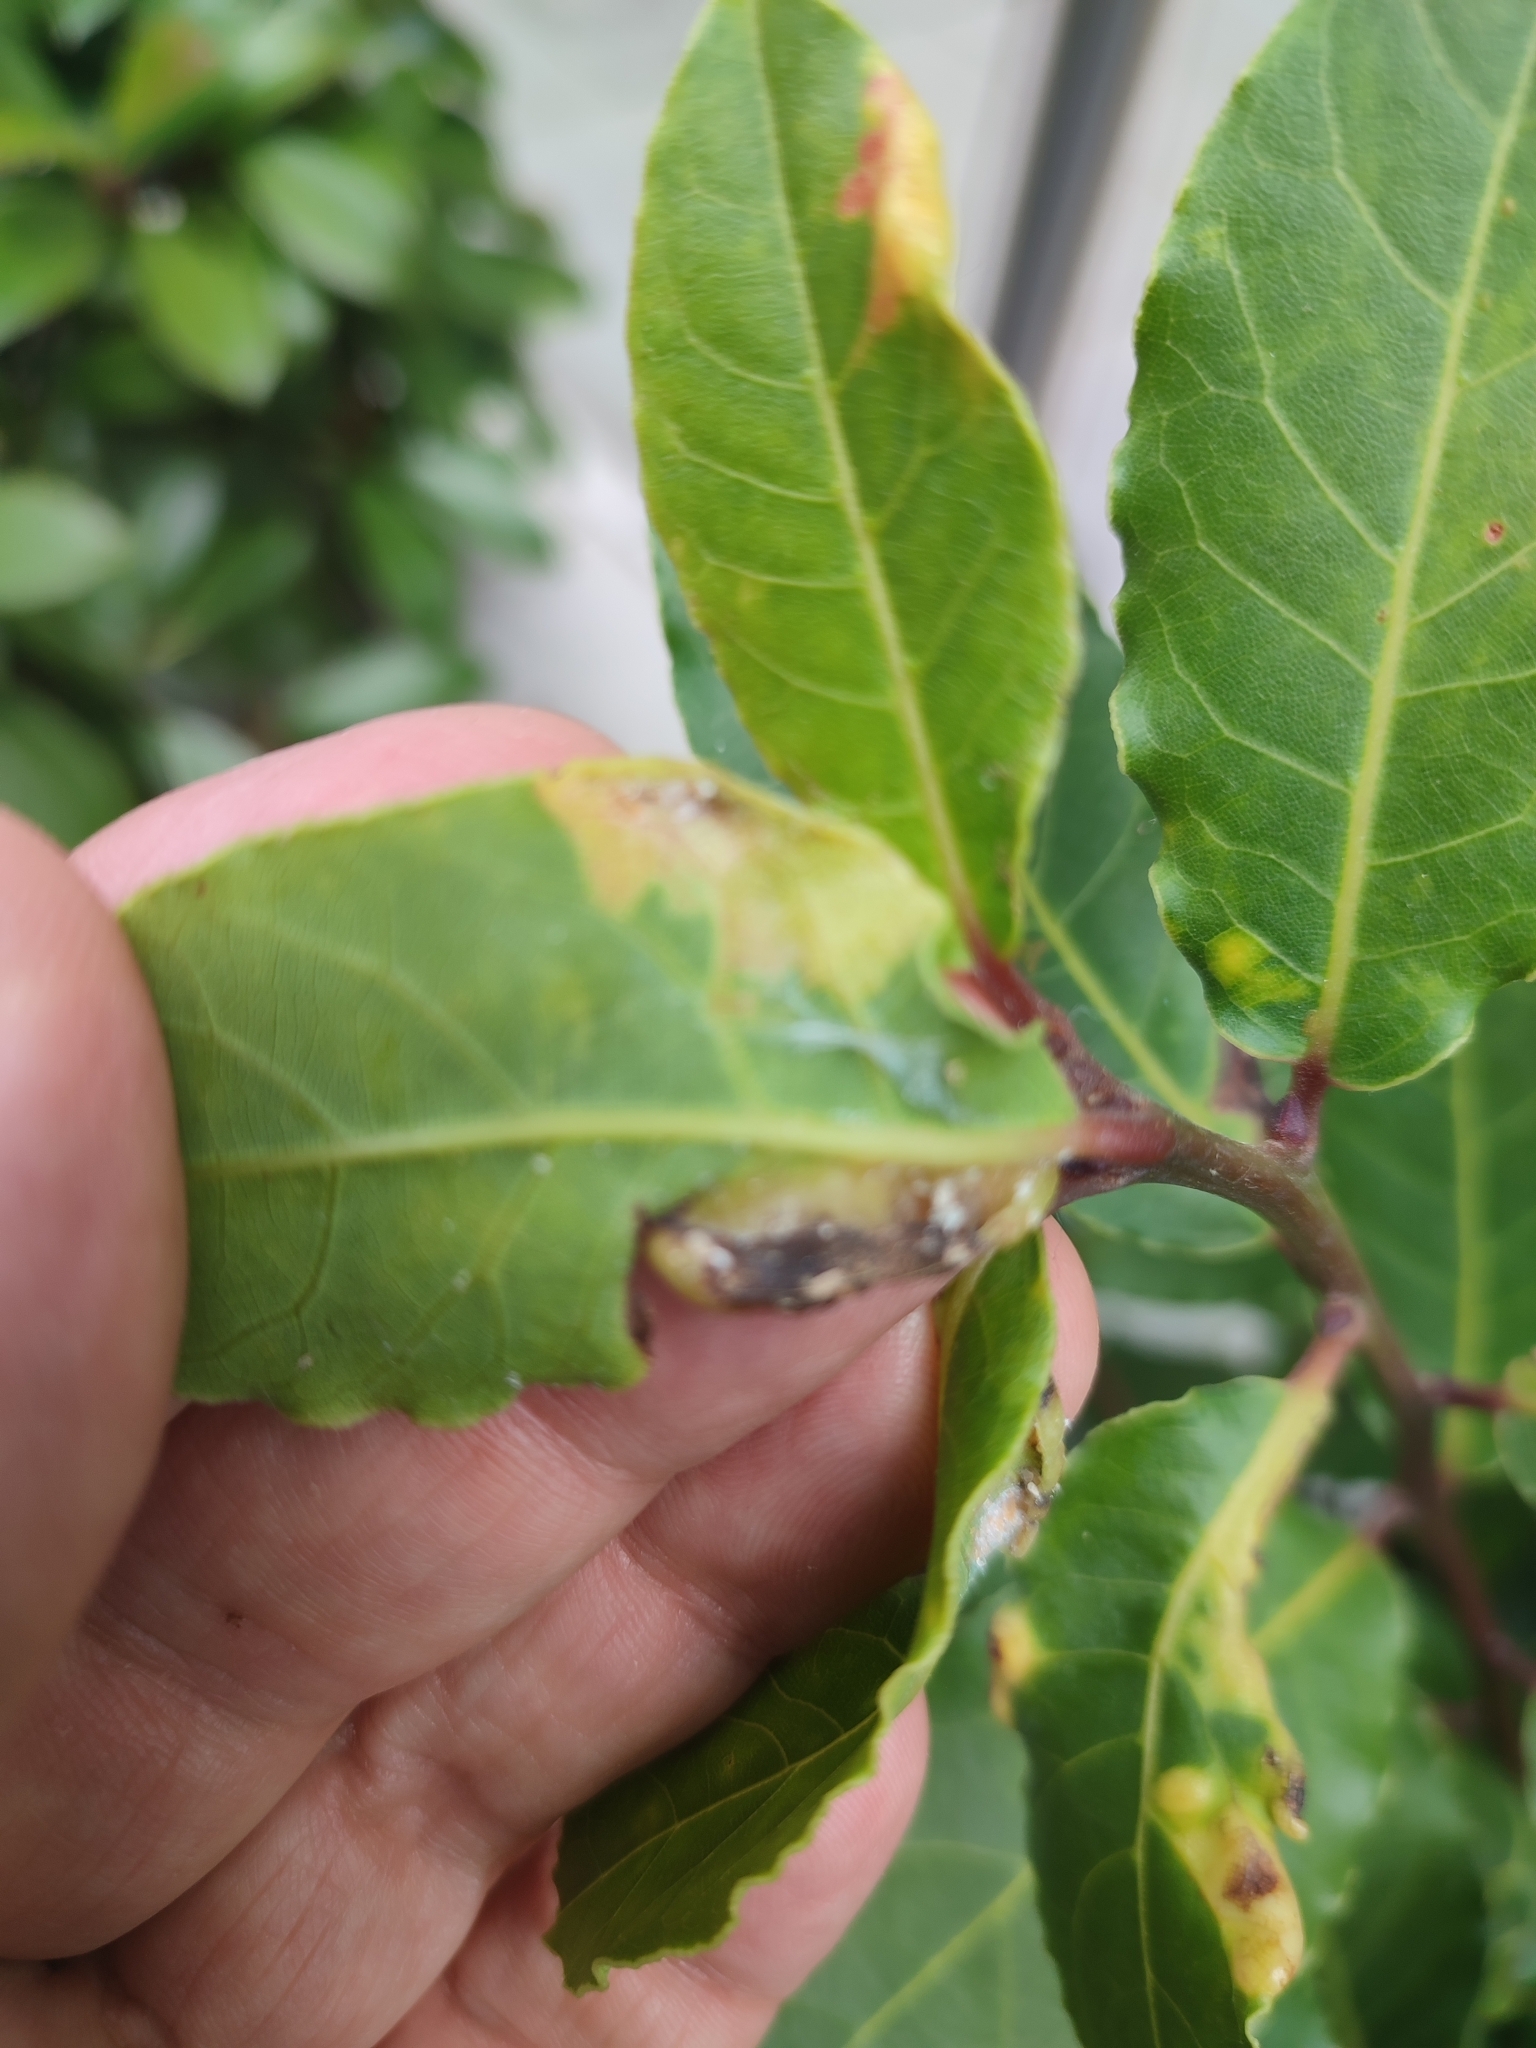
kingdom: Animalia
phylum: Arthropoda
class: Insecta
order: Hemiptera
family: Triozidae
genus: Lauritrioza
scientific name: Lauritrioza alacris
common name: Laurel psyllid
